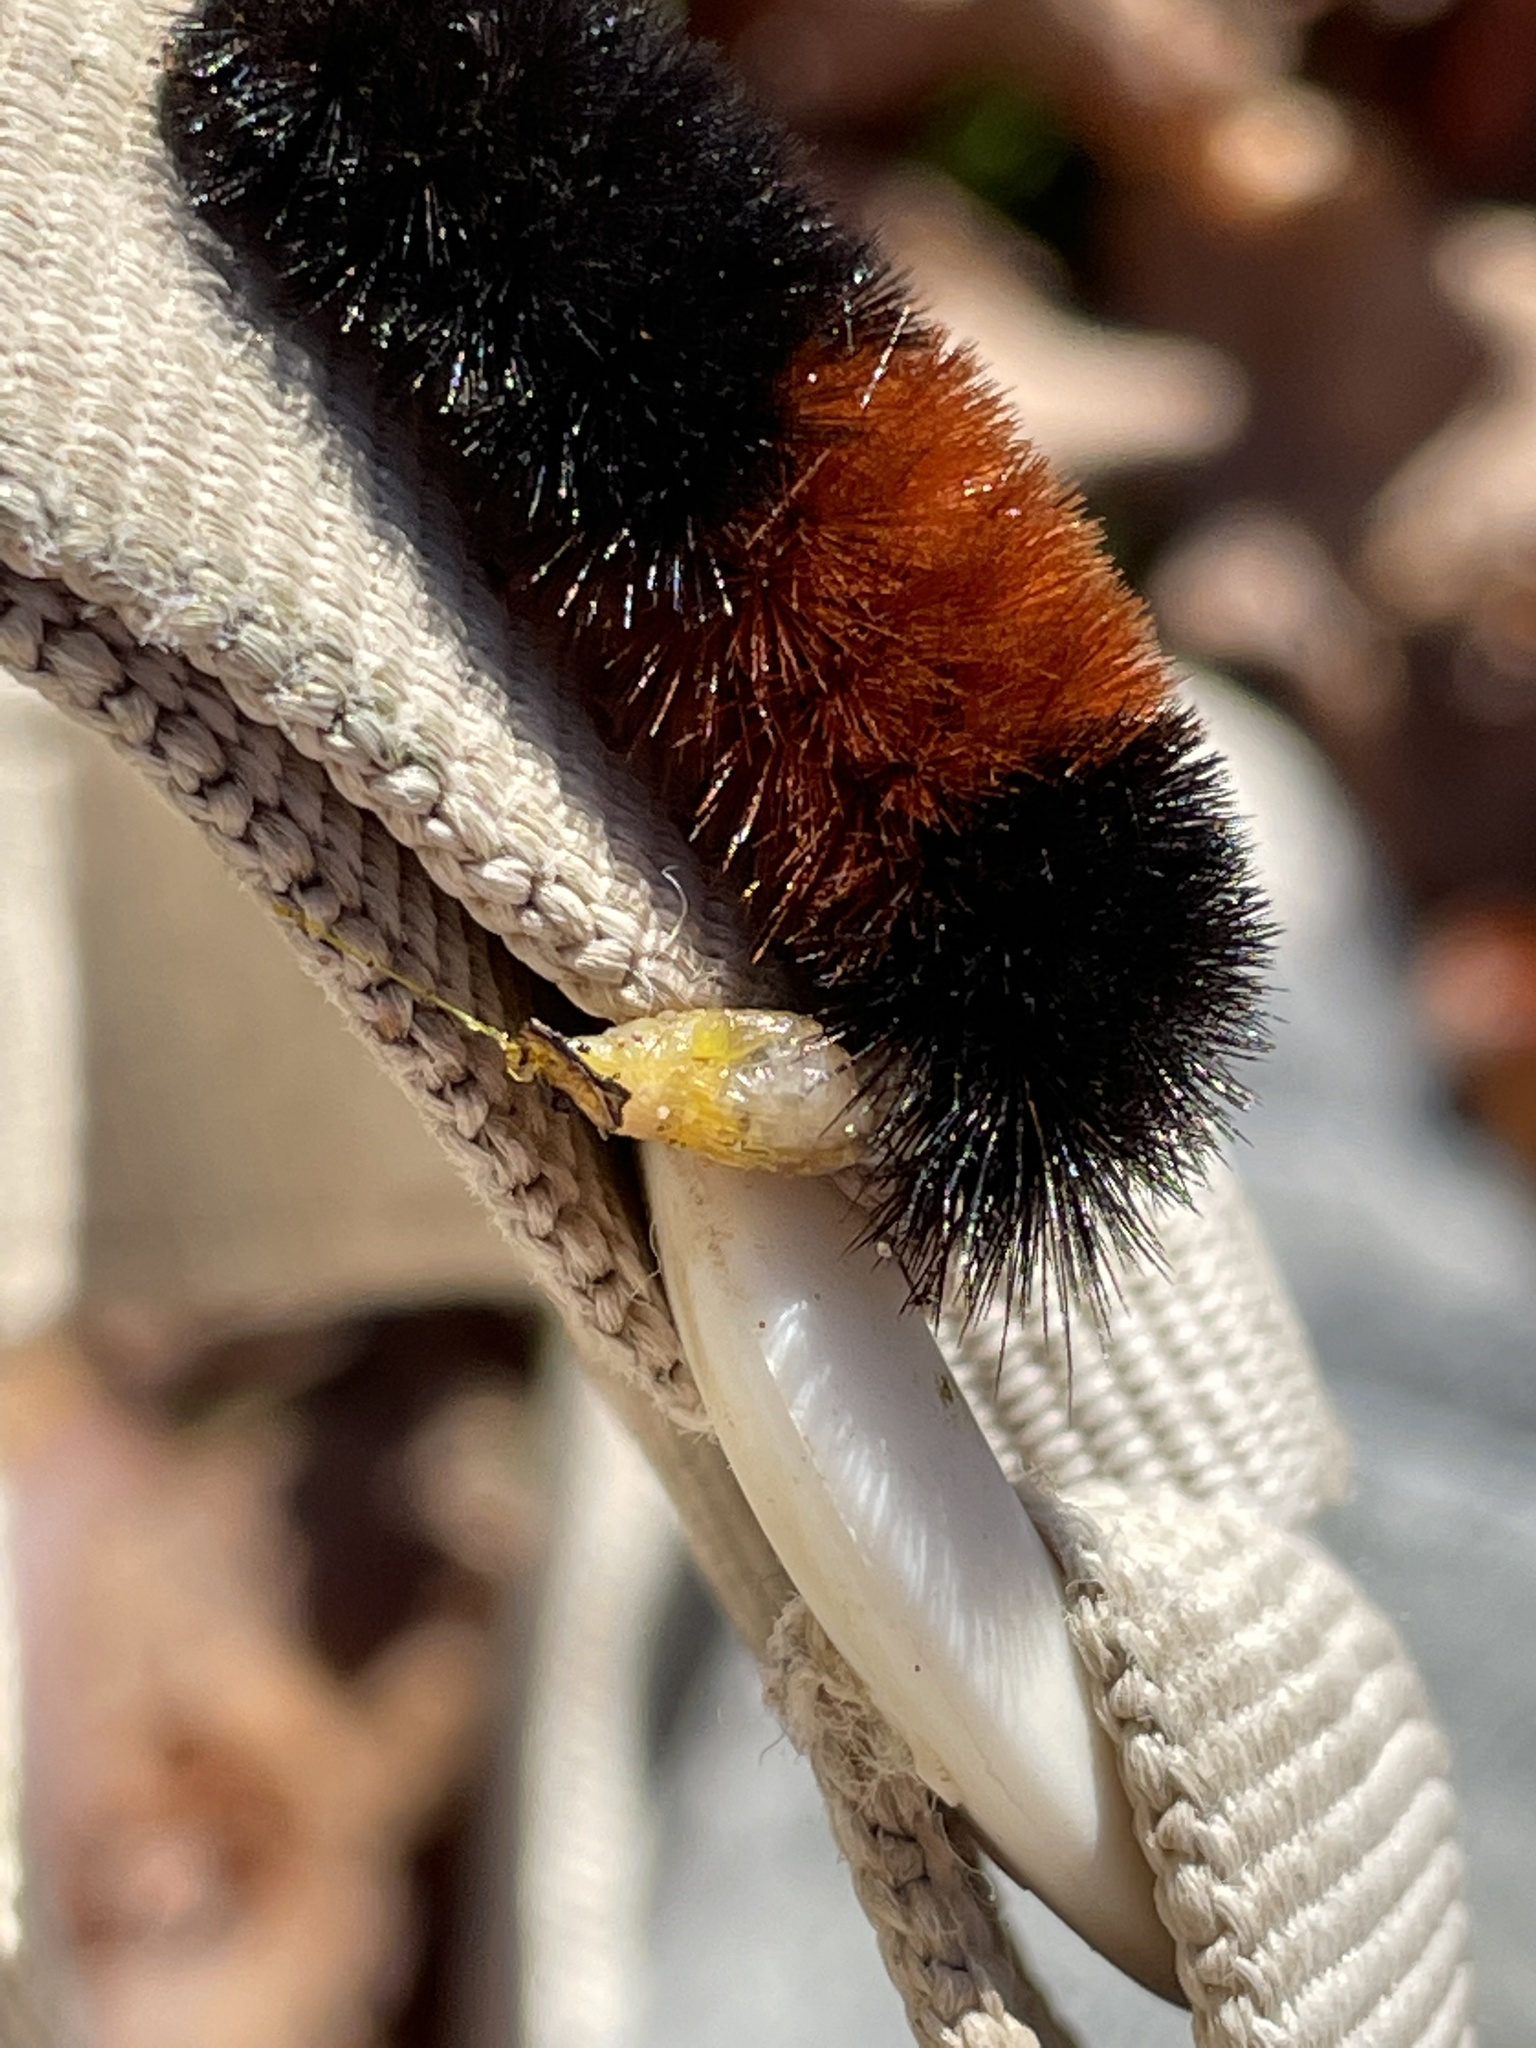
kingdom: Animalia
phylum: Arthropoda
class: Insecta
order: Lepidoptera
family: Erebidae
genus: Pyrrharctia
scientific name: Pyrrharctia isabella
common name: Isabella tiger moth
